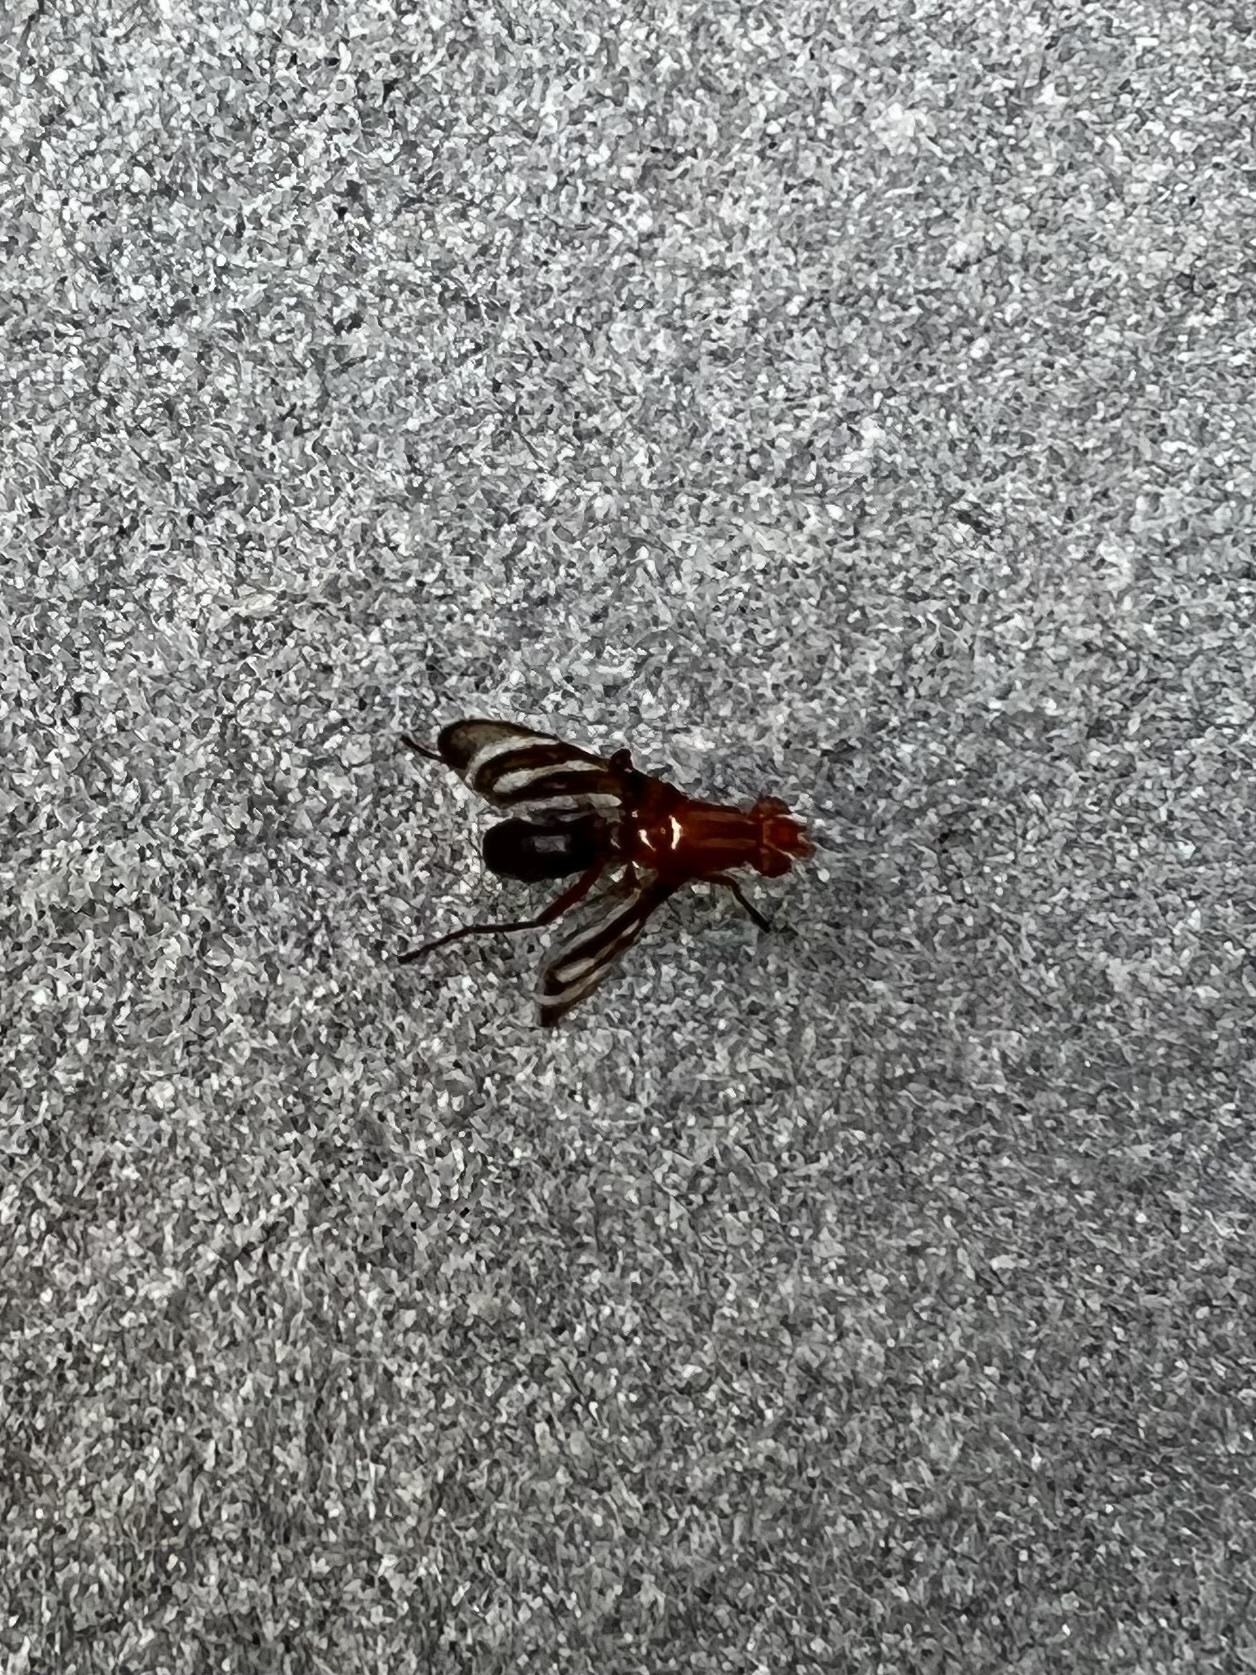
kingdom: Animalia
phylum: Arthropoda
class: Insecta
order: Diptera
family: Ulidiidae
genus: Tritoxa
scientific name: Tritoxa incurva
